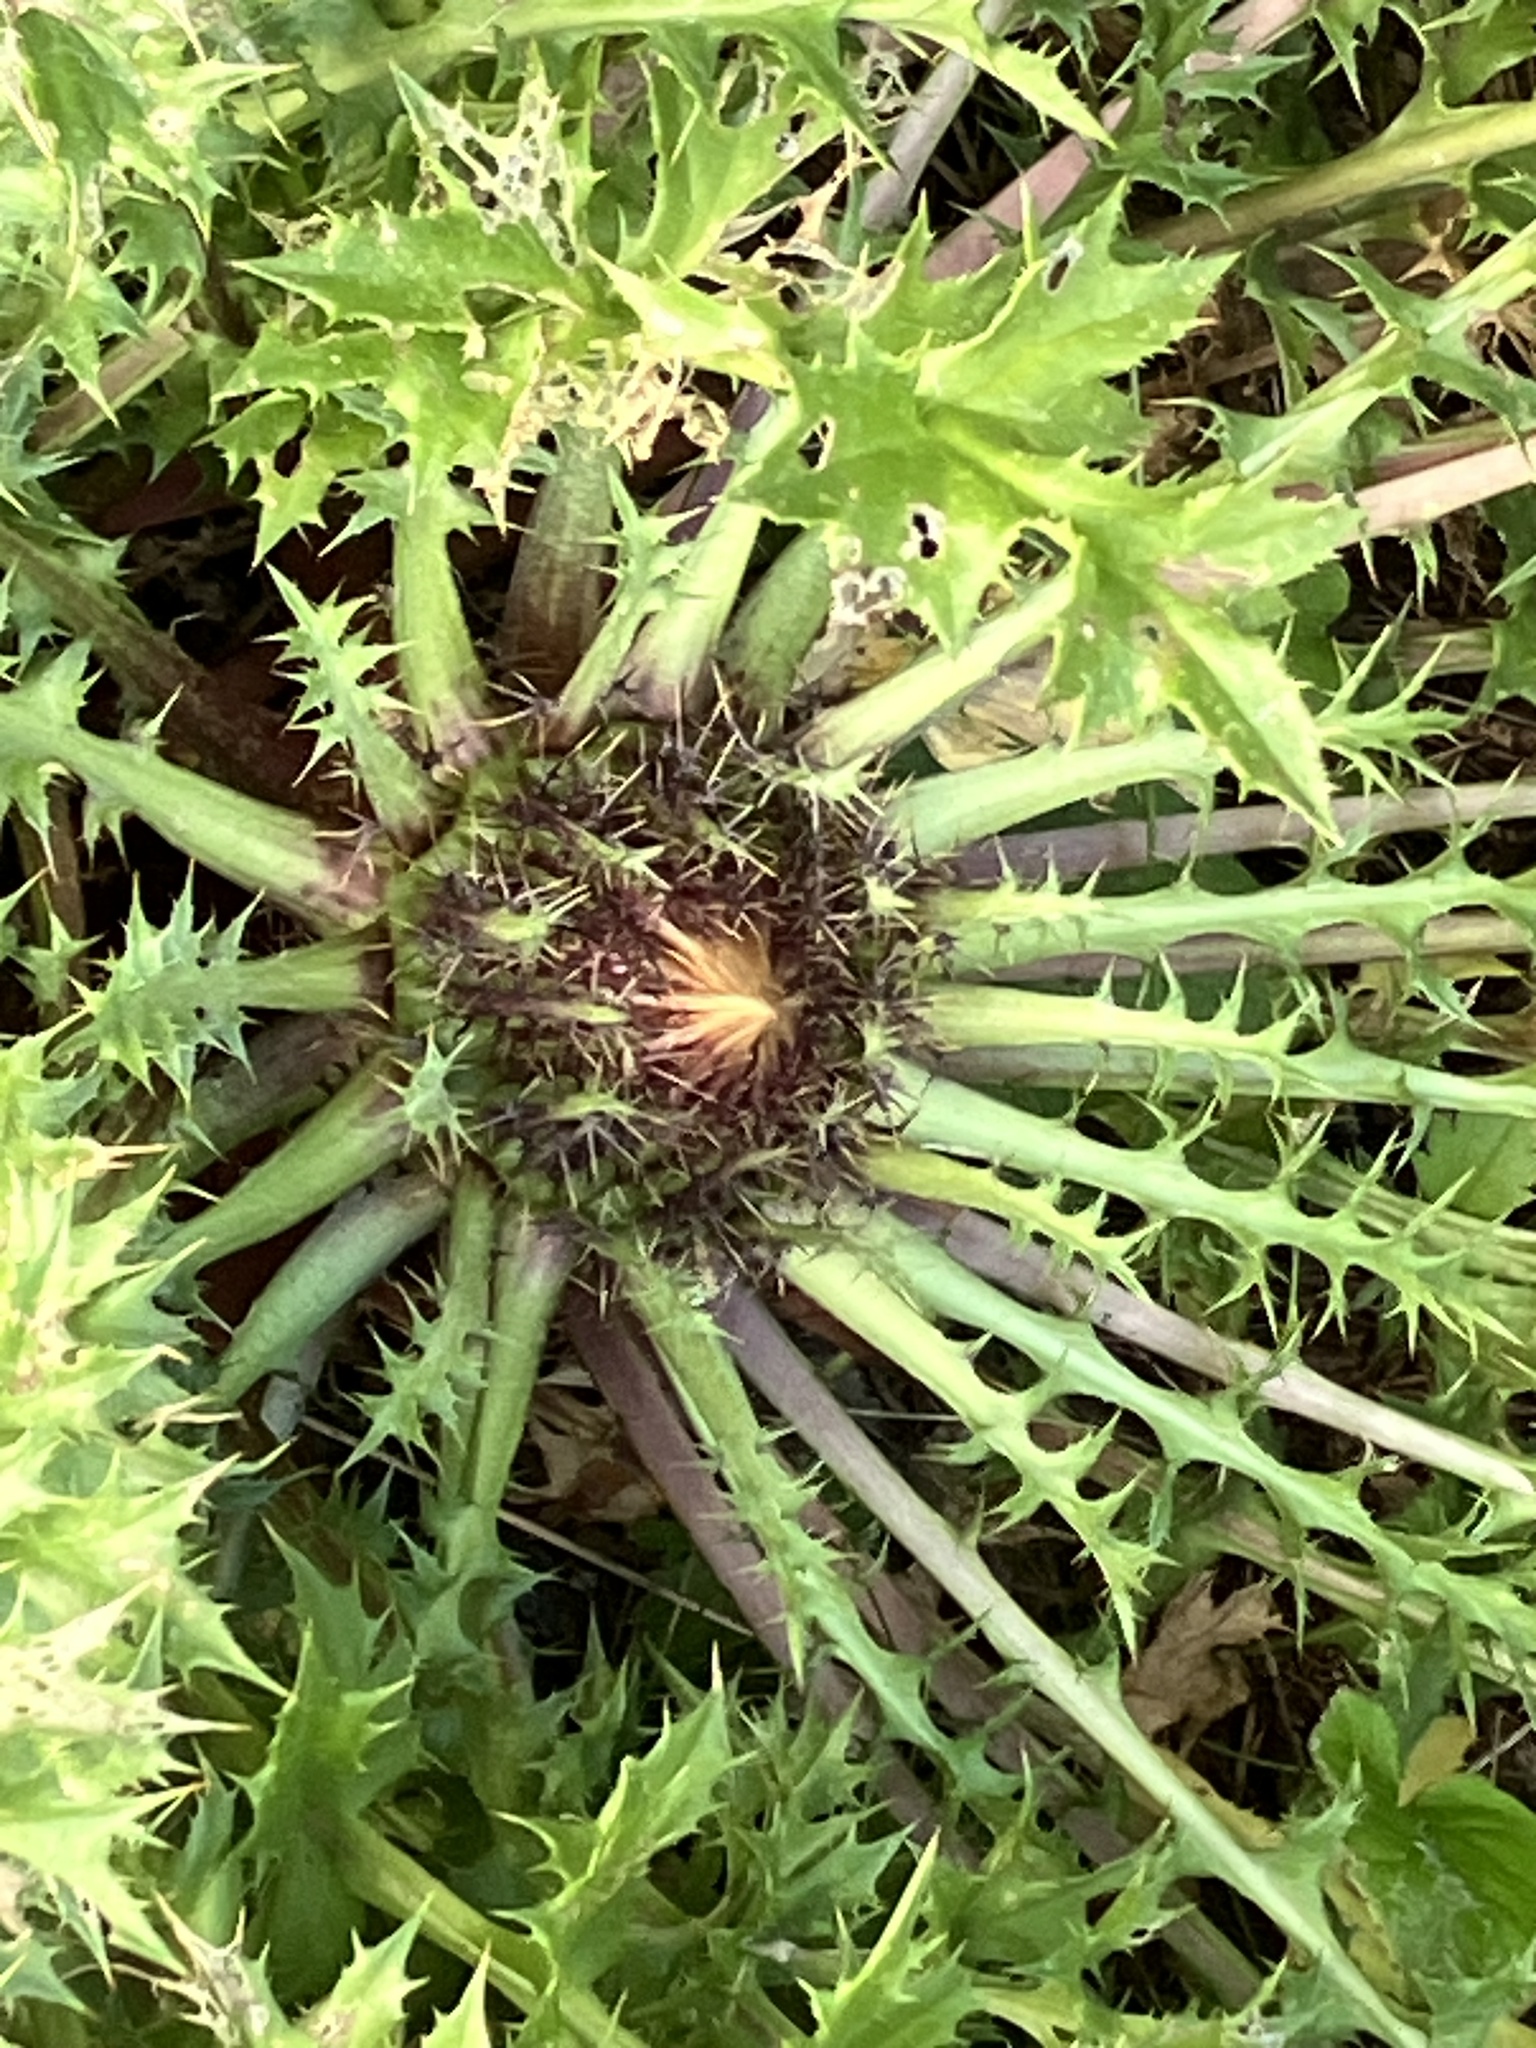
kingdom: Plantae
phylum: Tracheophyta
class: Magnoliopsida
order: Asterales
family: Asteraceae
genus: Carlina
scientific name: Carlina acaulis
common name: Stemless carline thistle
